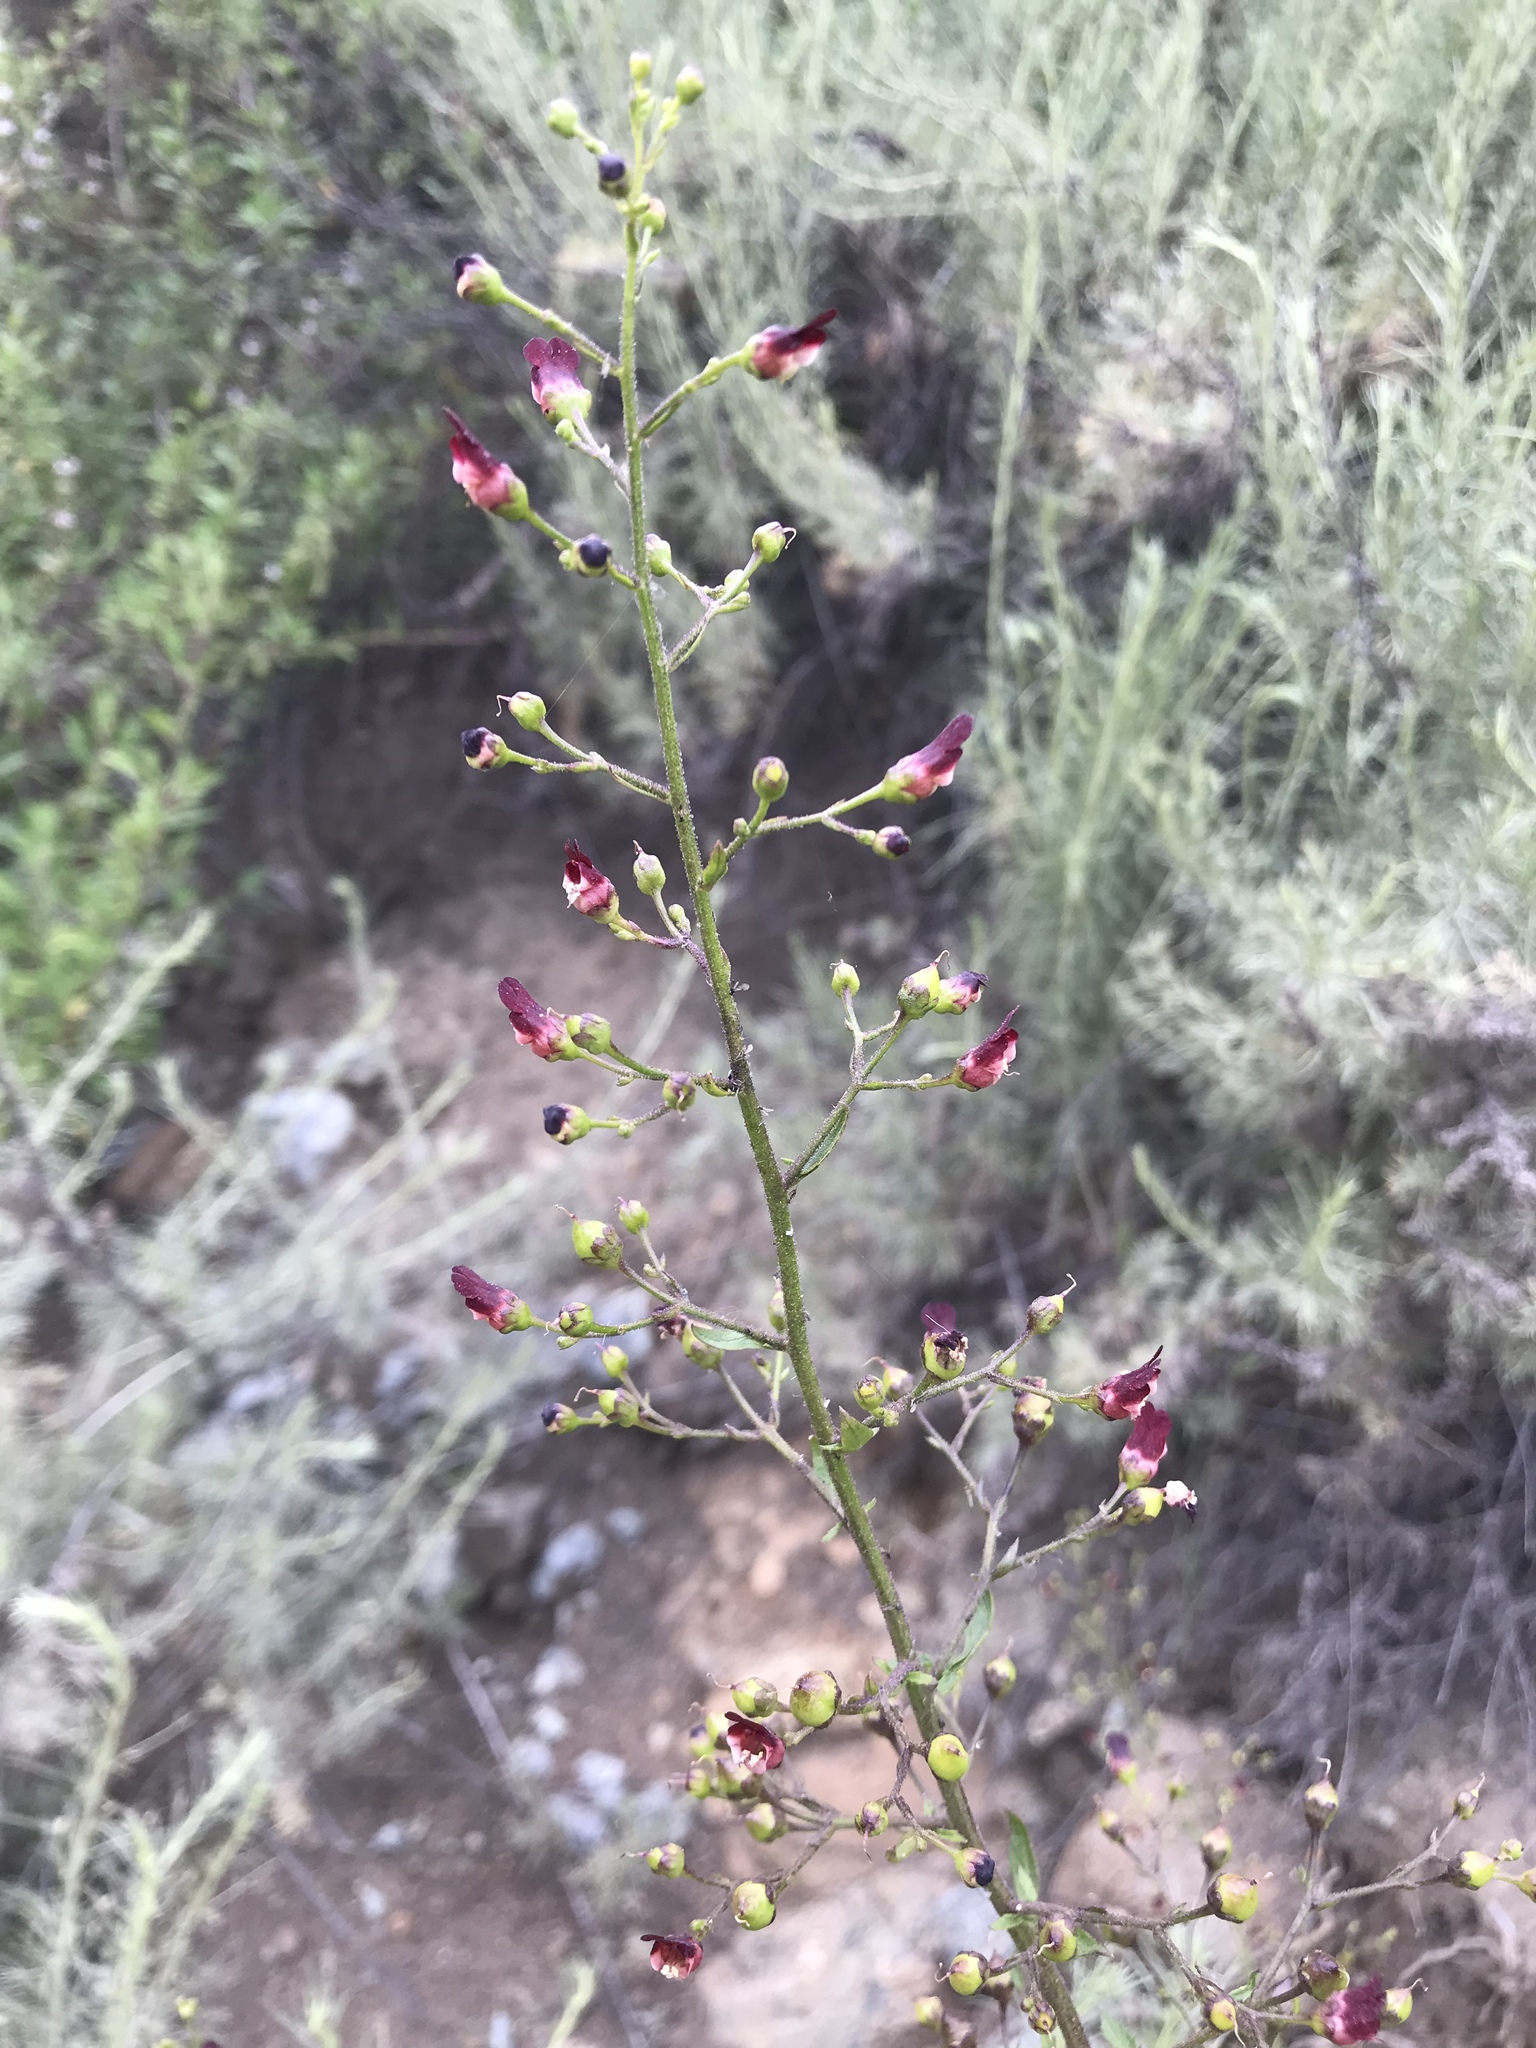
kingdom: Plantae
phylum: Tracheophyta
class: Magnoliopsida
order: Lamiales
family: Scrophulariaceae
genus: Scrophularia
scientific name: Scrophularia californica
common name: California figwort
